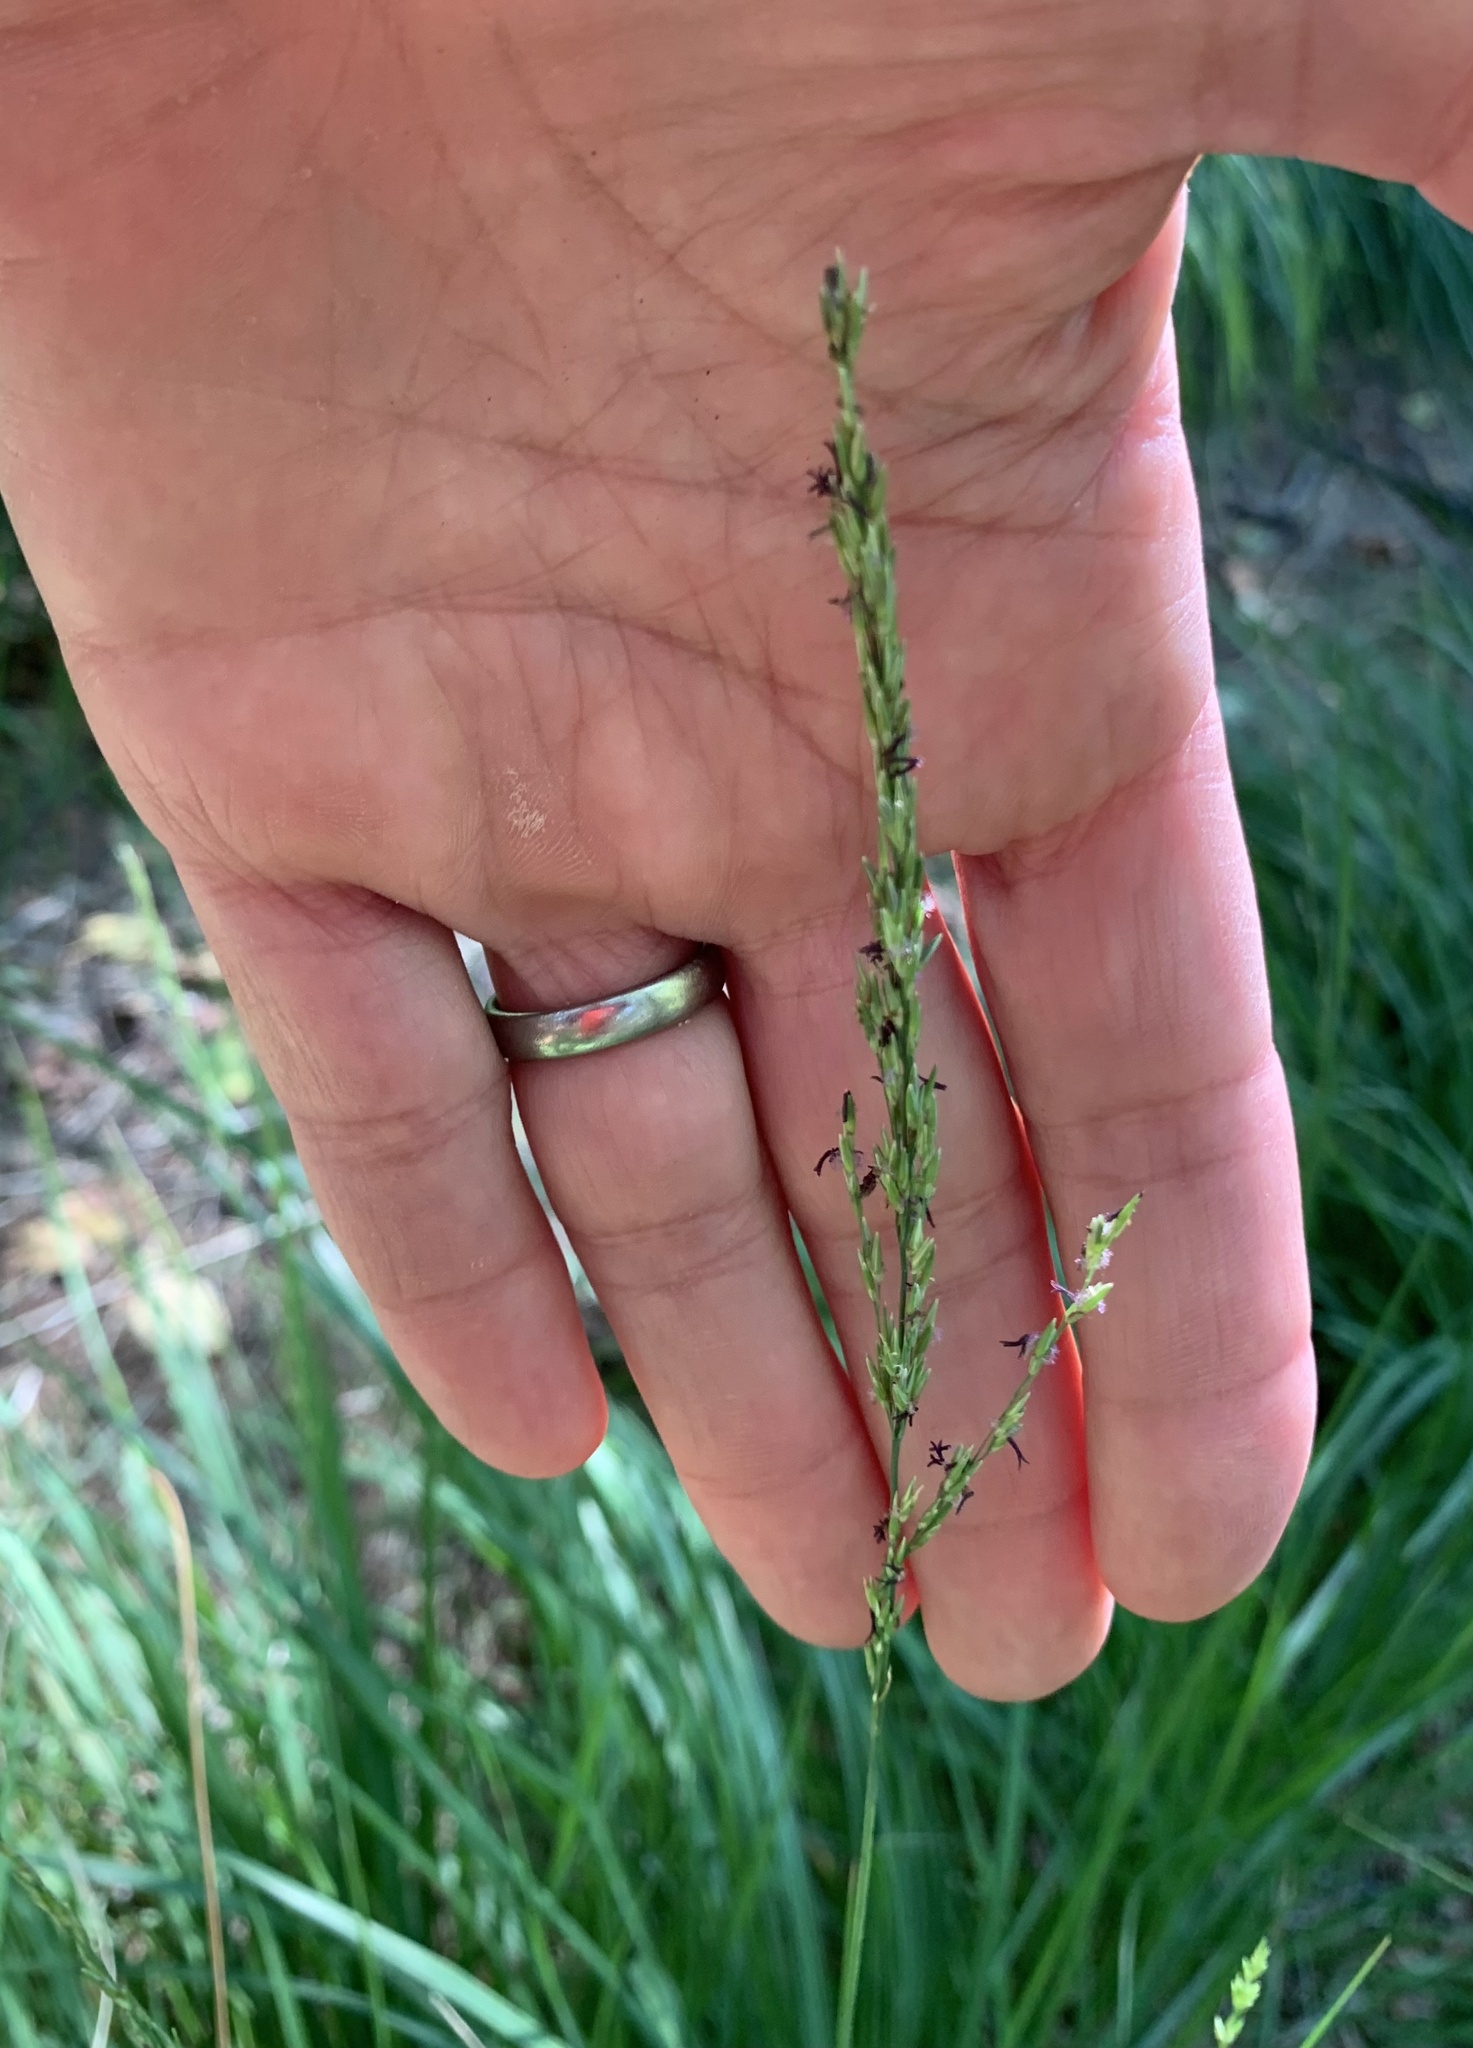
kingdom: Plantae
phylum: Tracheophyta
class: Liliopsida
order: Poales
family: Poaceae
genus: Molinia
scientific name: Molinia caerulea
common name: Purple moor-grass
